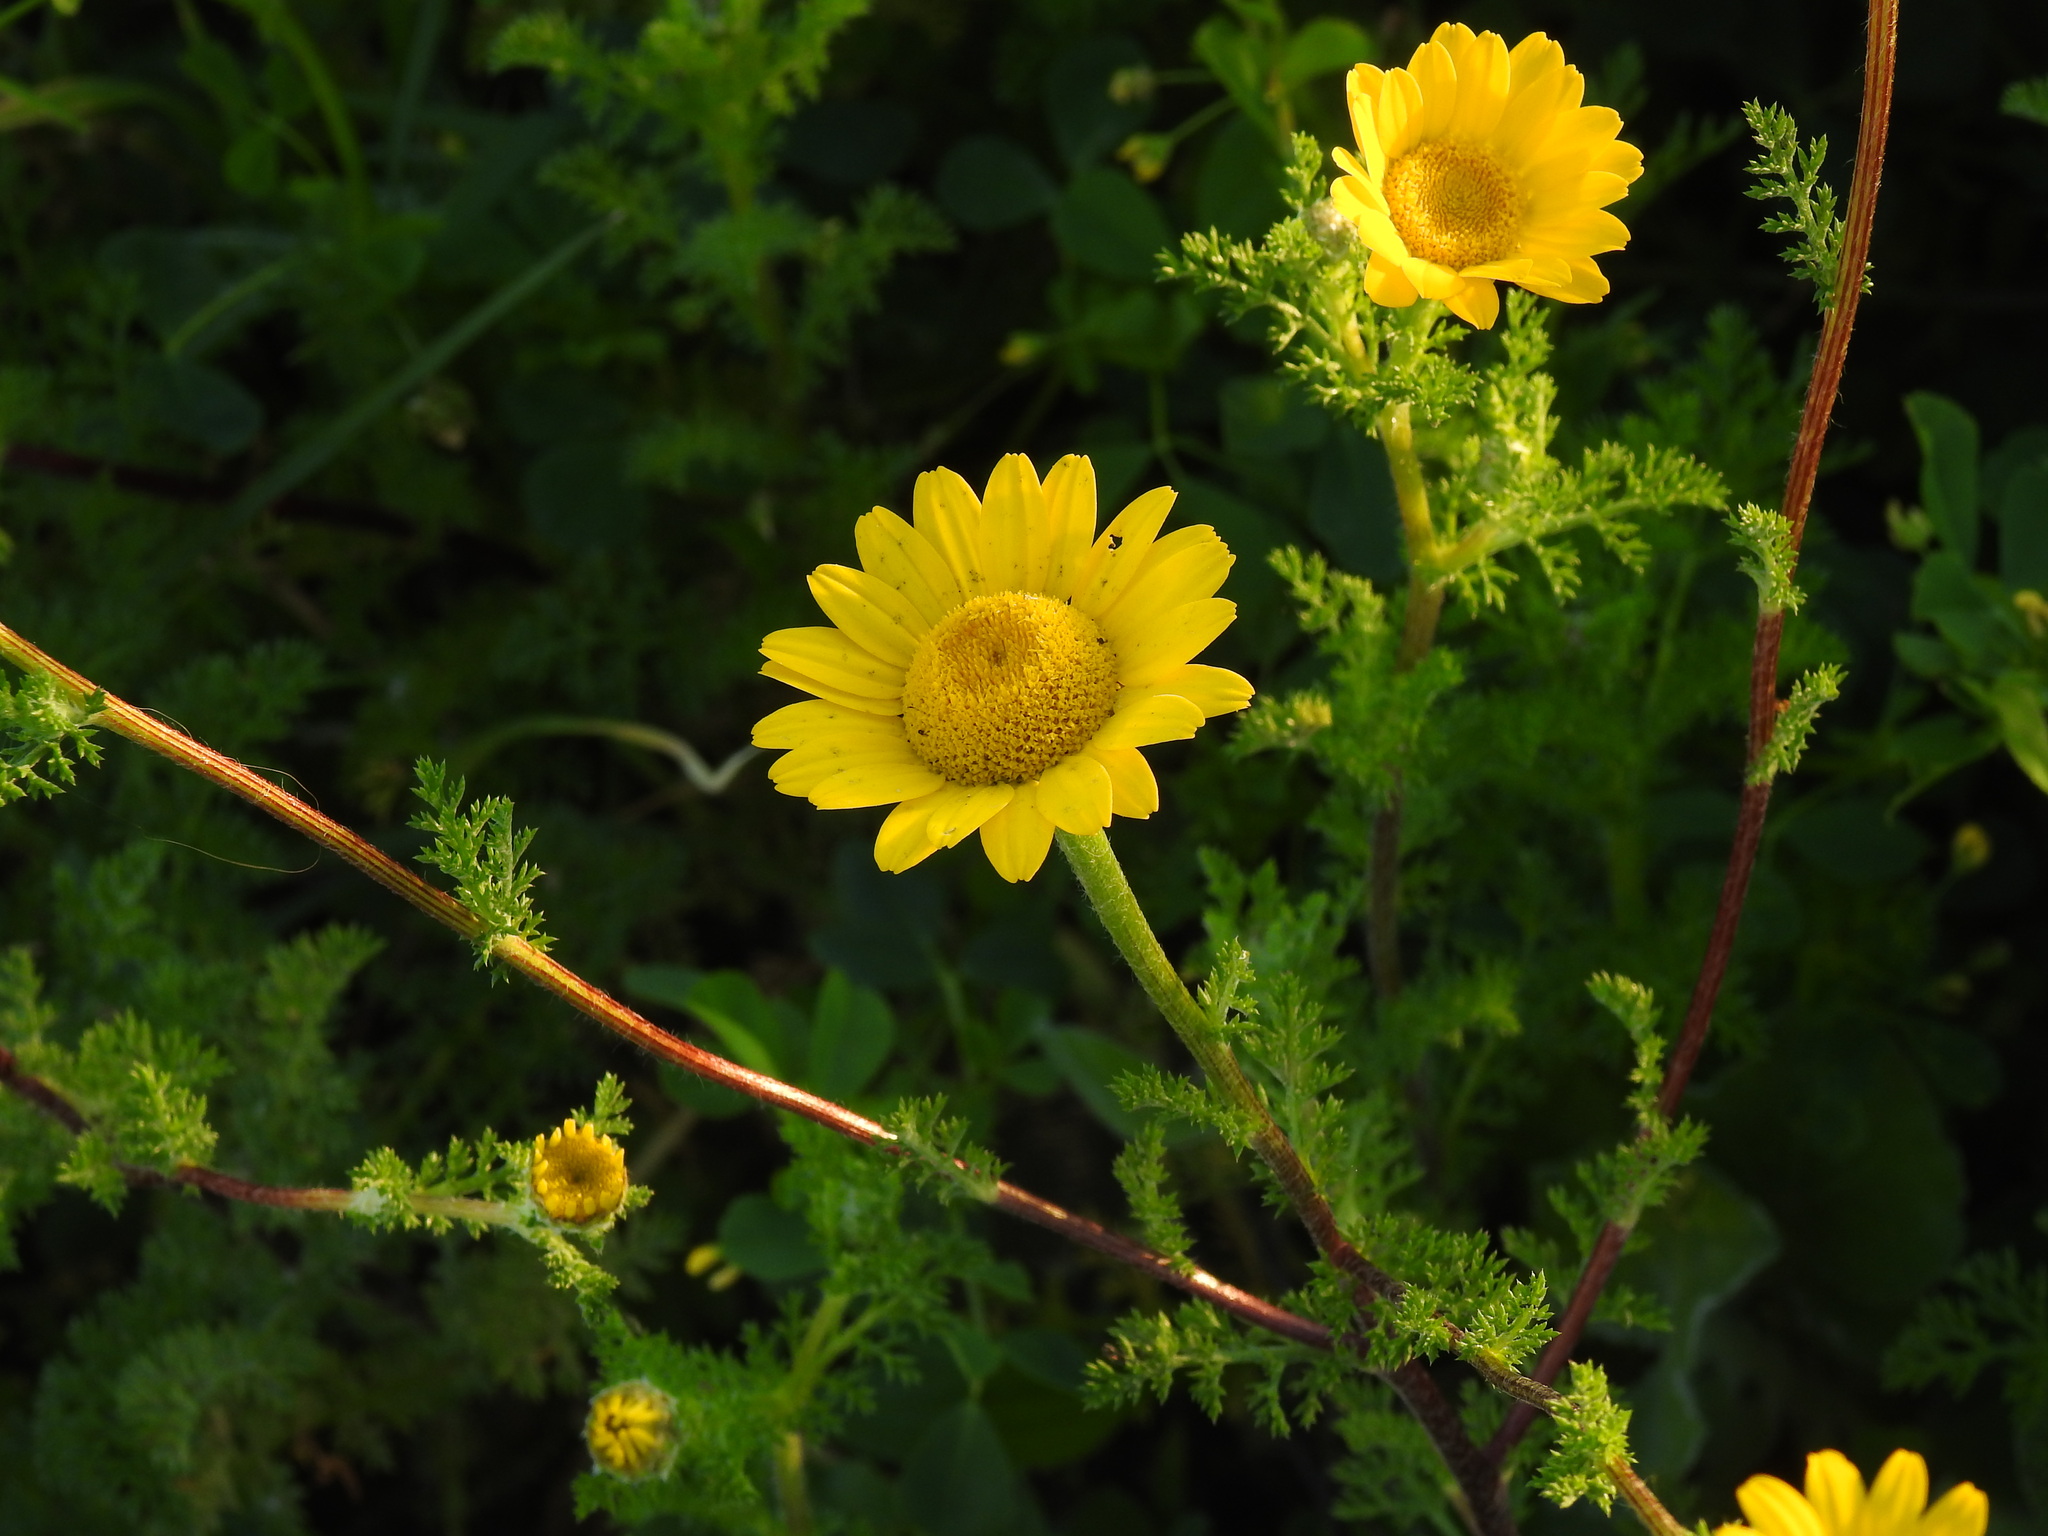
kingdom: Plantae
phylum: Tracheophyta
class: Magnoliopsida
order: Asterales
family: Asteraceae
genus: Anacyclus
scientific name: Anacyclus radiatus
